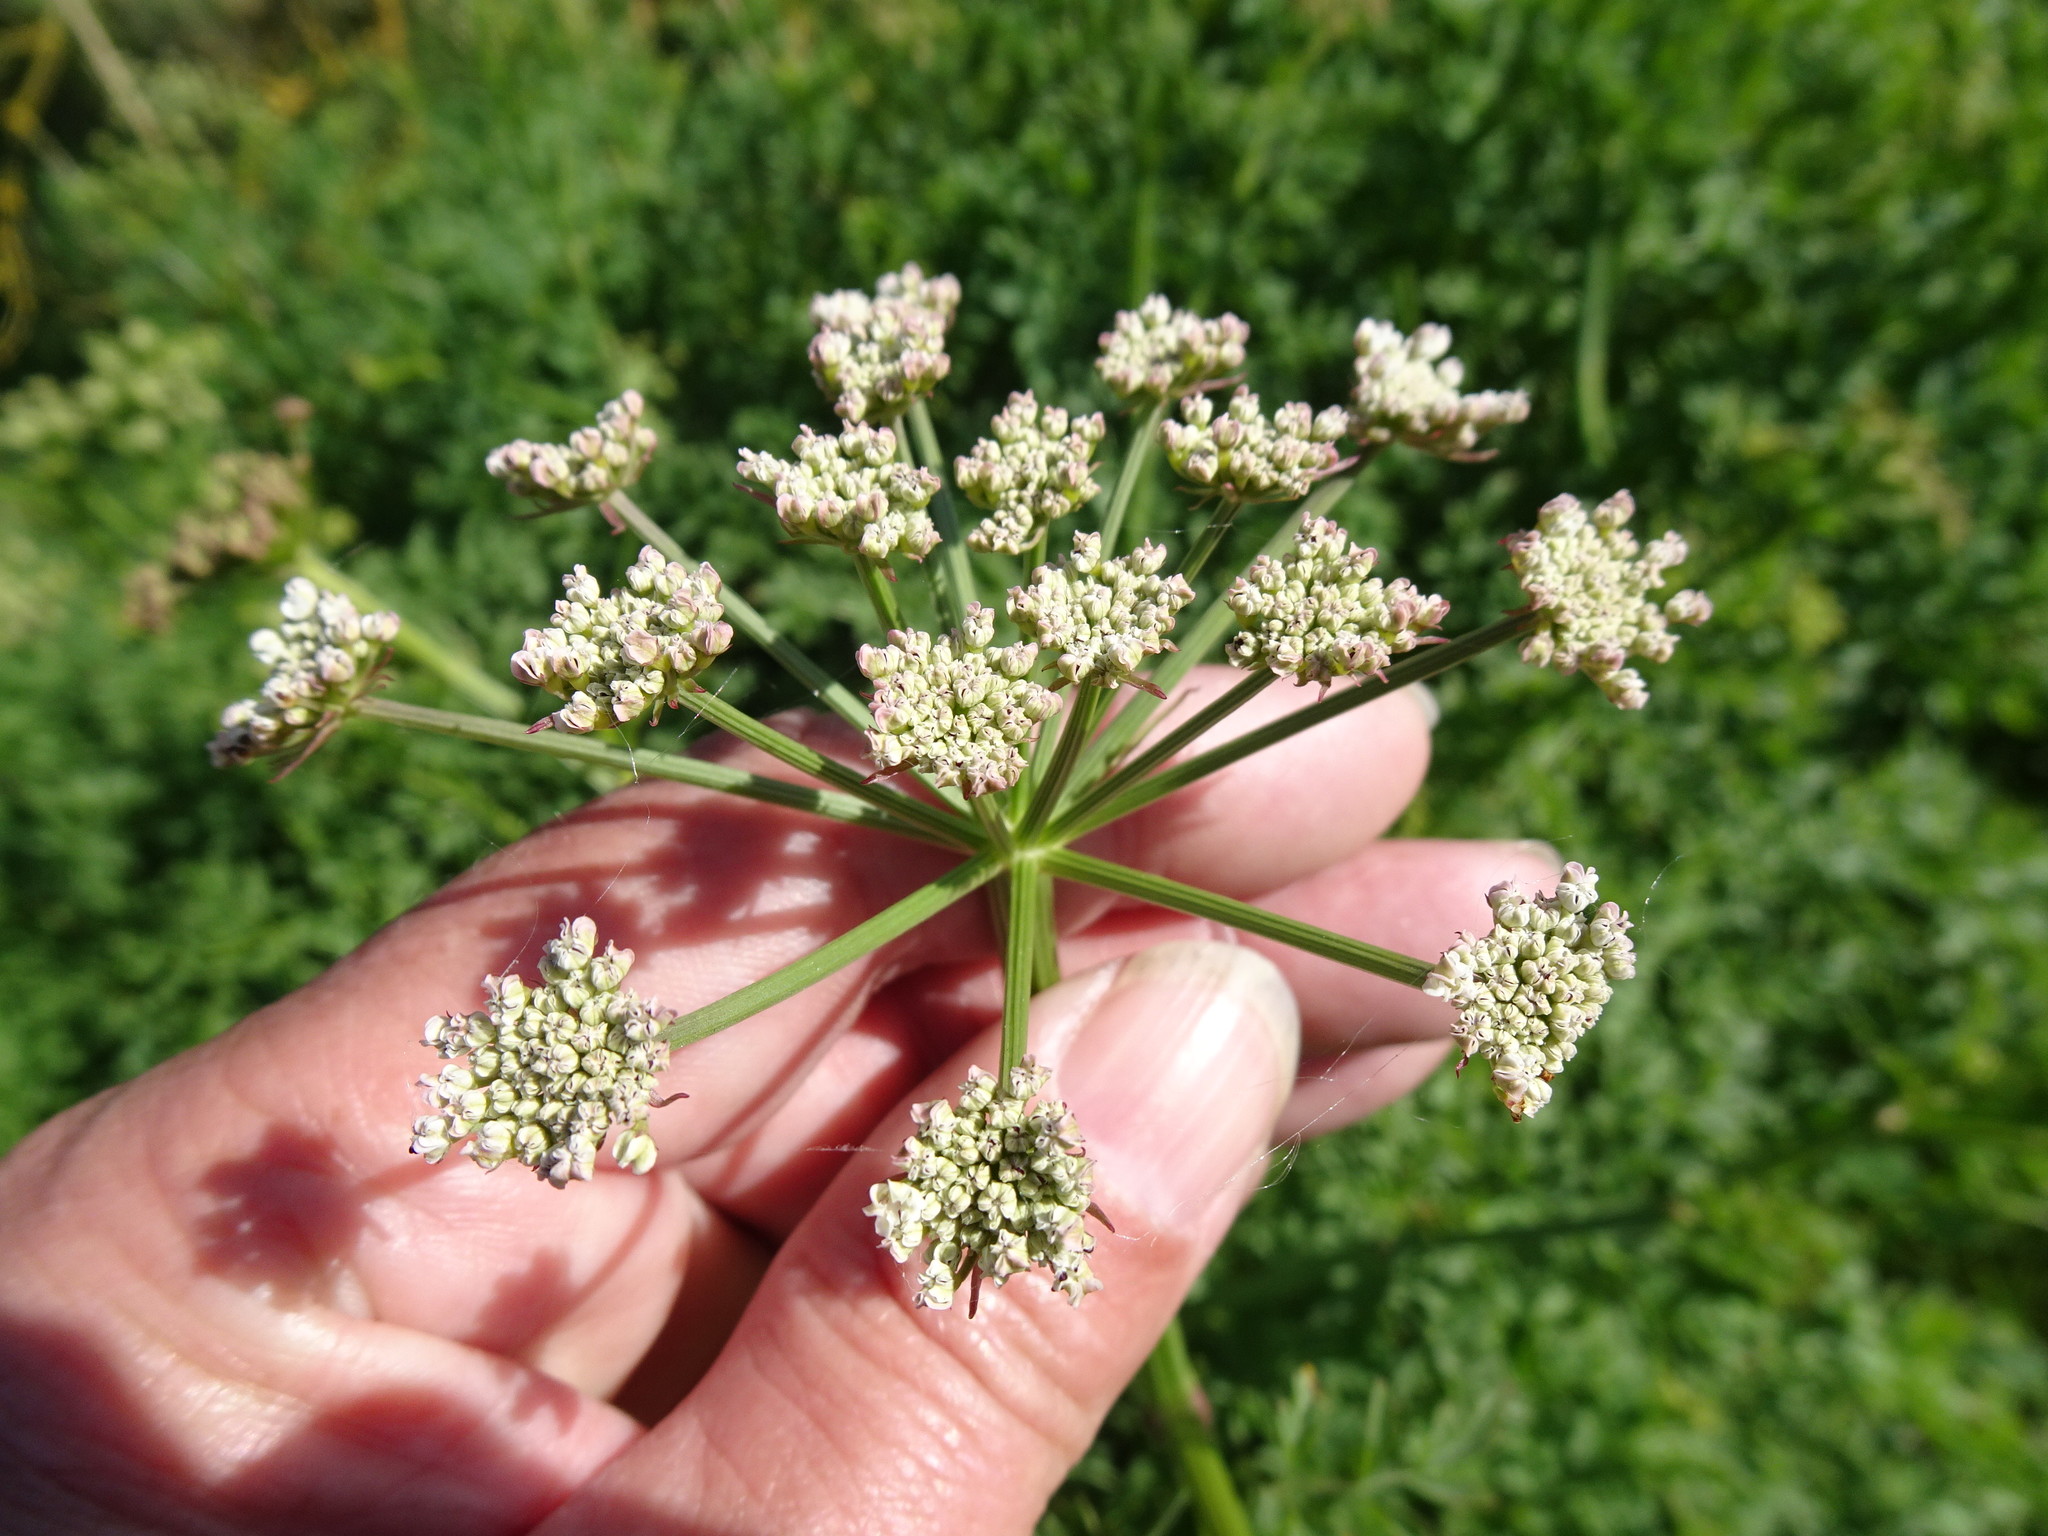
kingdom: Plantae
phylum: Tracheophyta
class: Magnoliopsida
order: Apiales
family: Apiaceae
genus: Oenanthe
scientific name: Oenanthe crocata
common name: Hemlock water-dropwort
